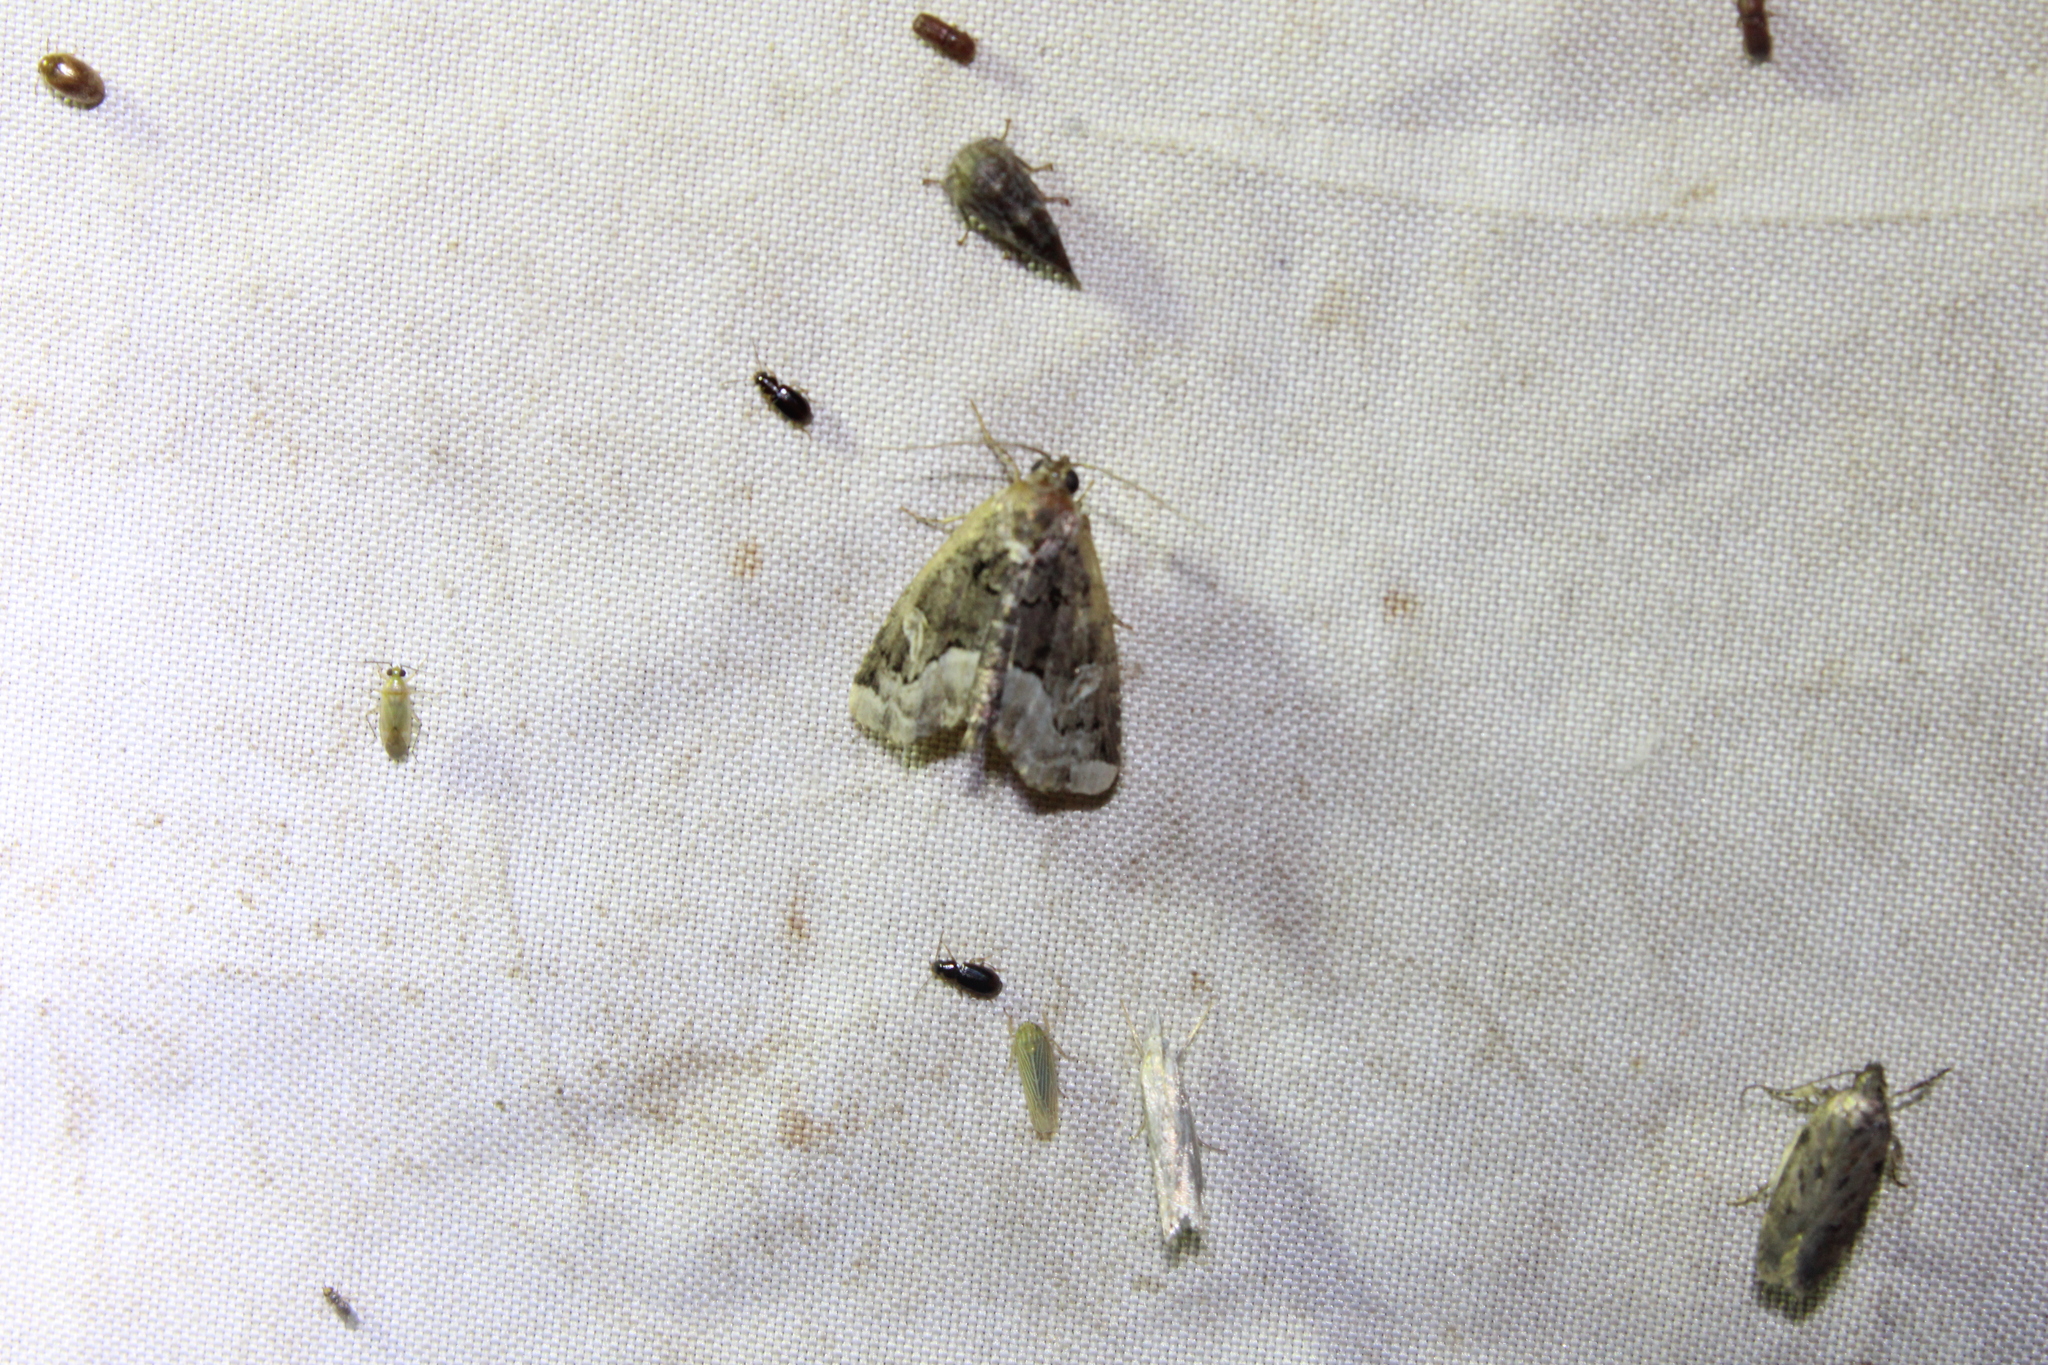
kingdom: Animalia
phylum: Arthropoda
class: Insecta
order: Lepidoptera
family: Noctuidae
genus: Homophoberia
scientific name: Homophoberia apicosa
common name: Black wedge-spot
